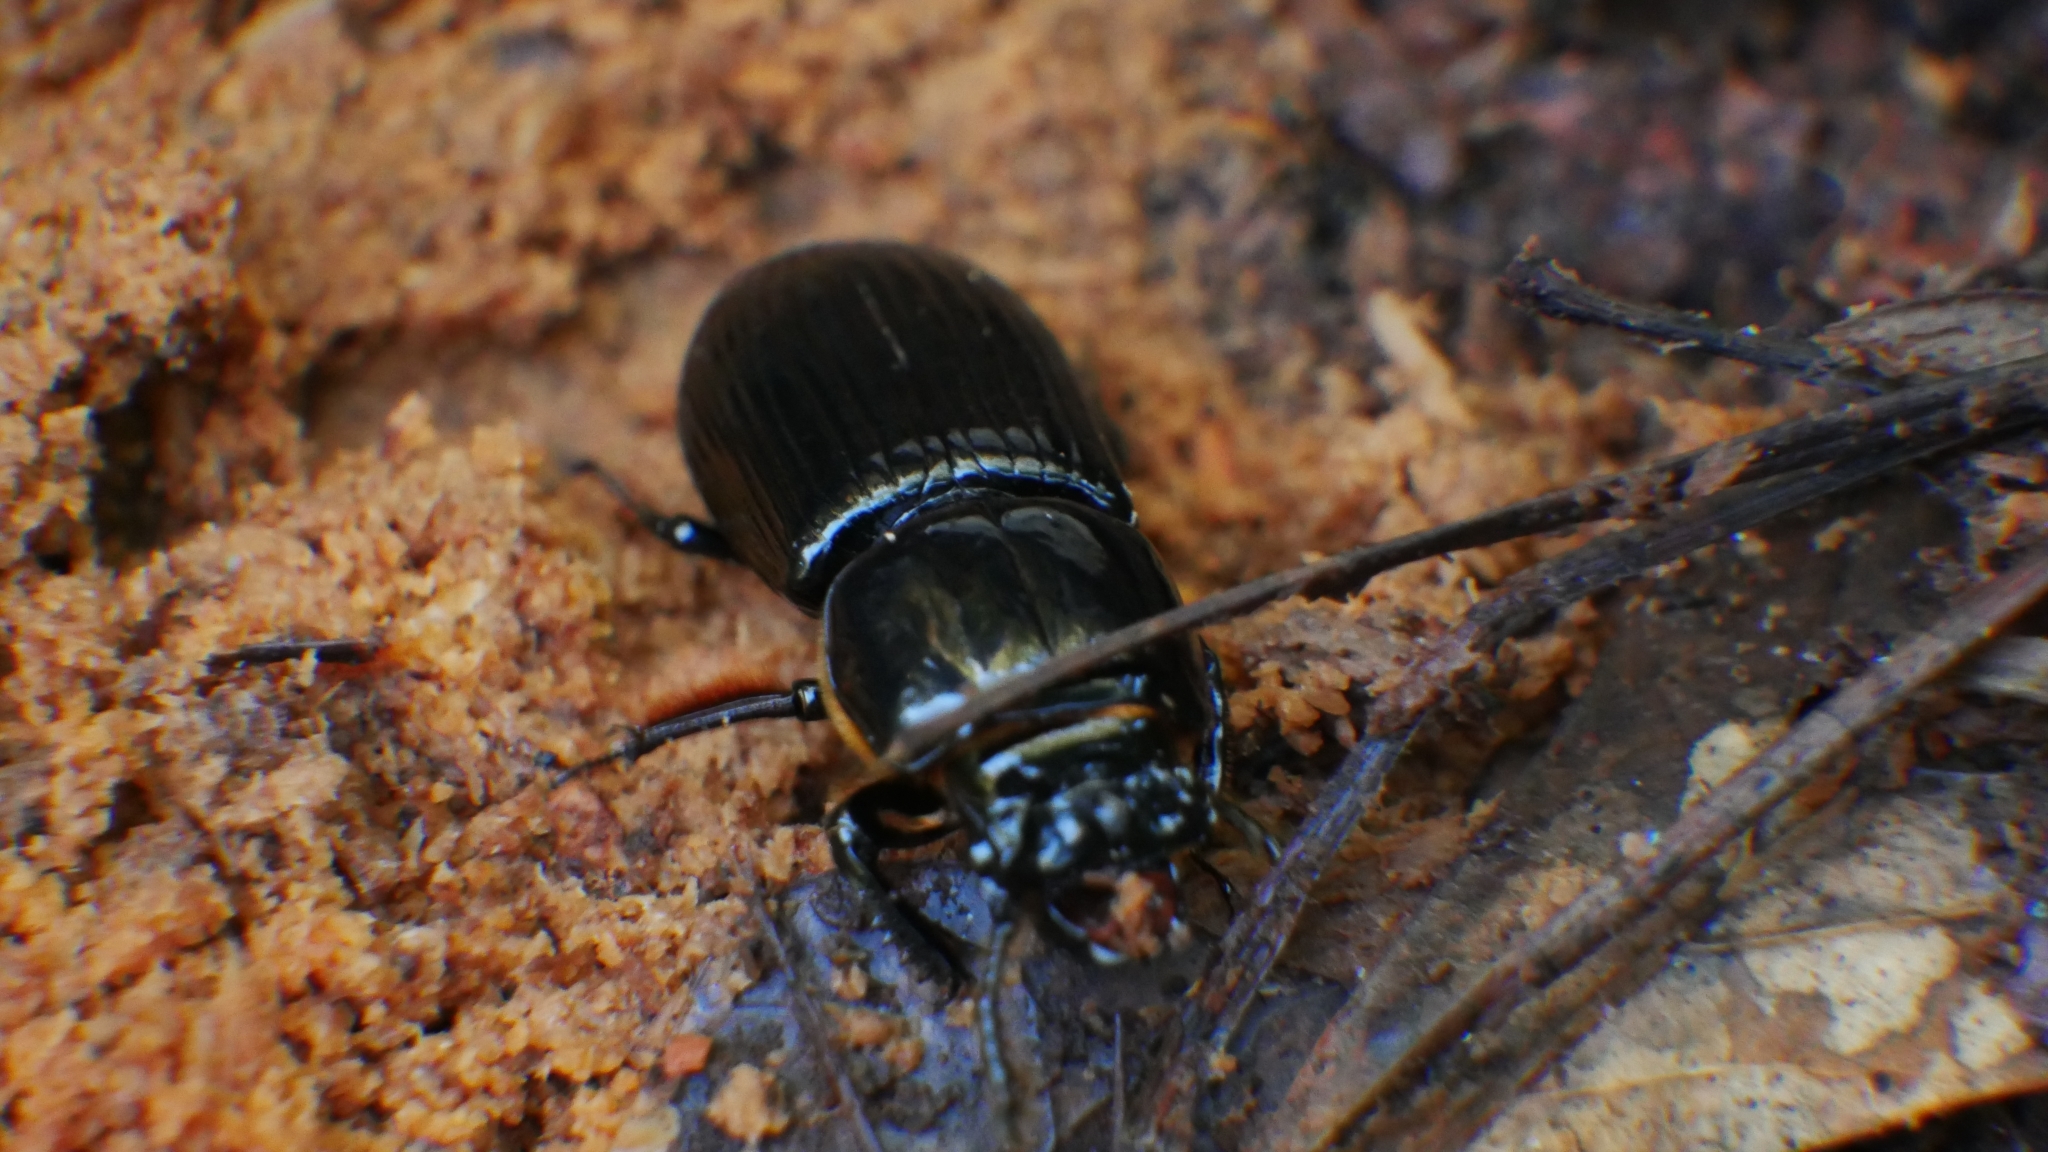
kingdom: Animalia
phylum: Arthropoda
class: Insecta
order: Coleoptera
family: Passalidae
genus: Odontotaenius
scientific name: Odontotaenius disjunctus
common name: Patent leather beetle
